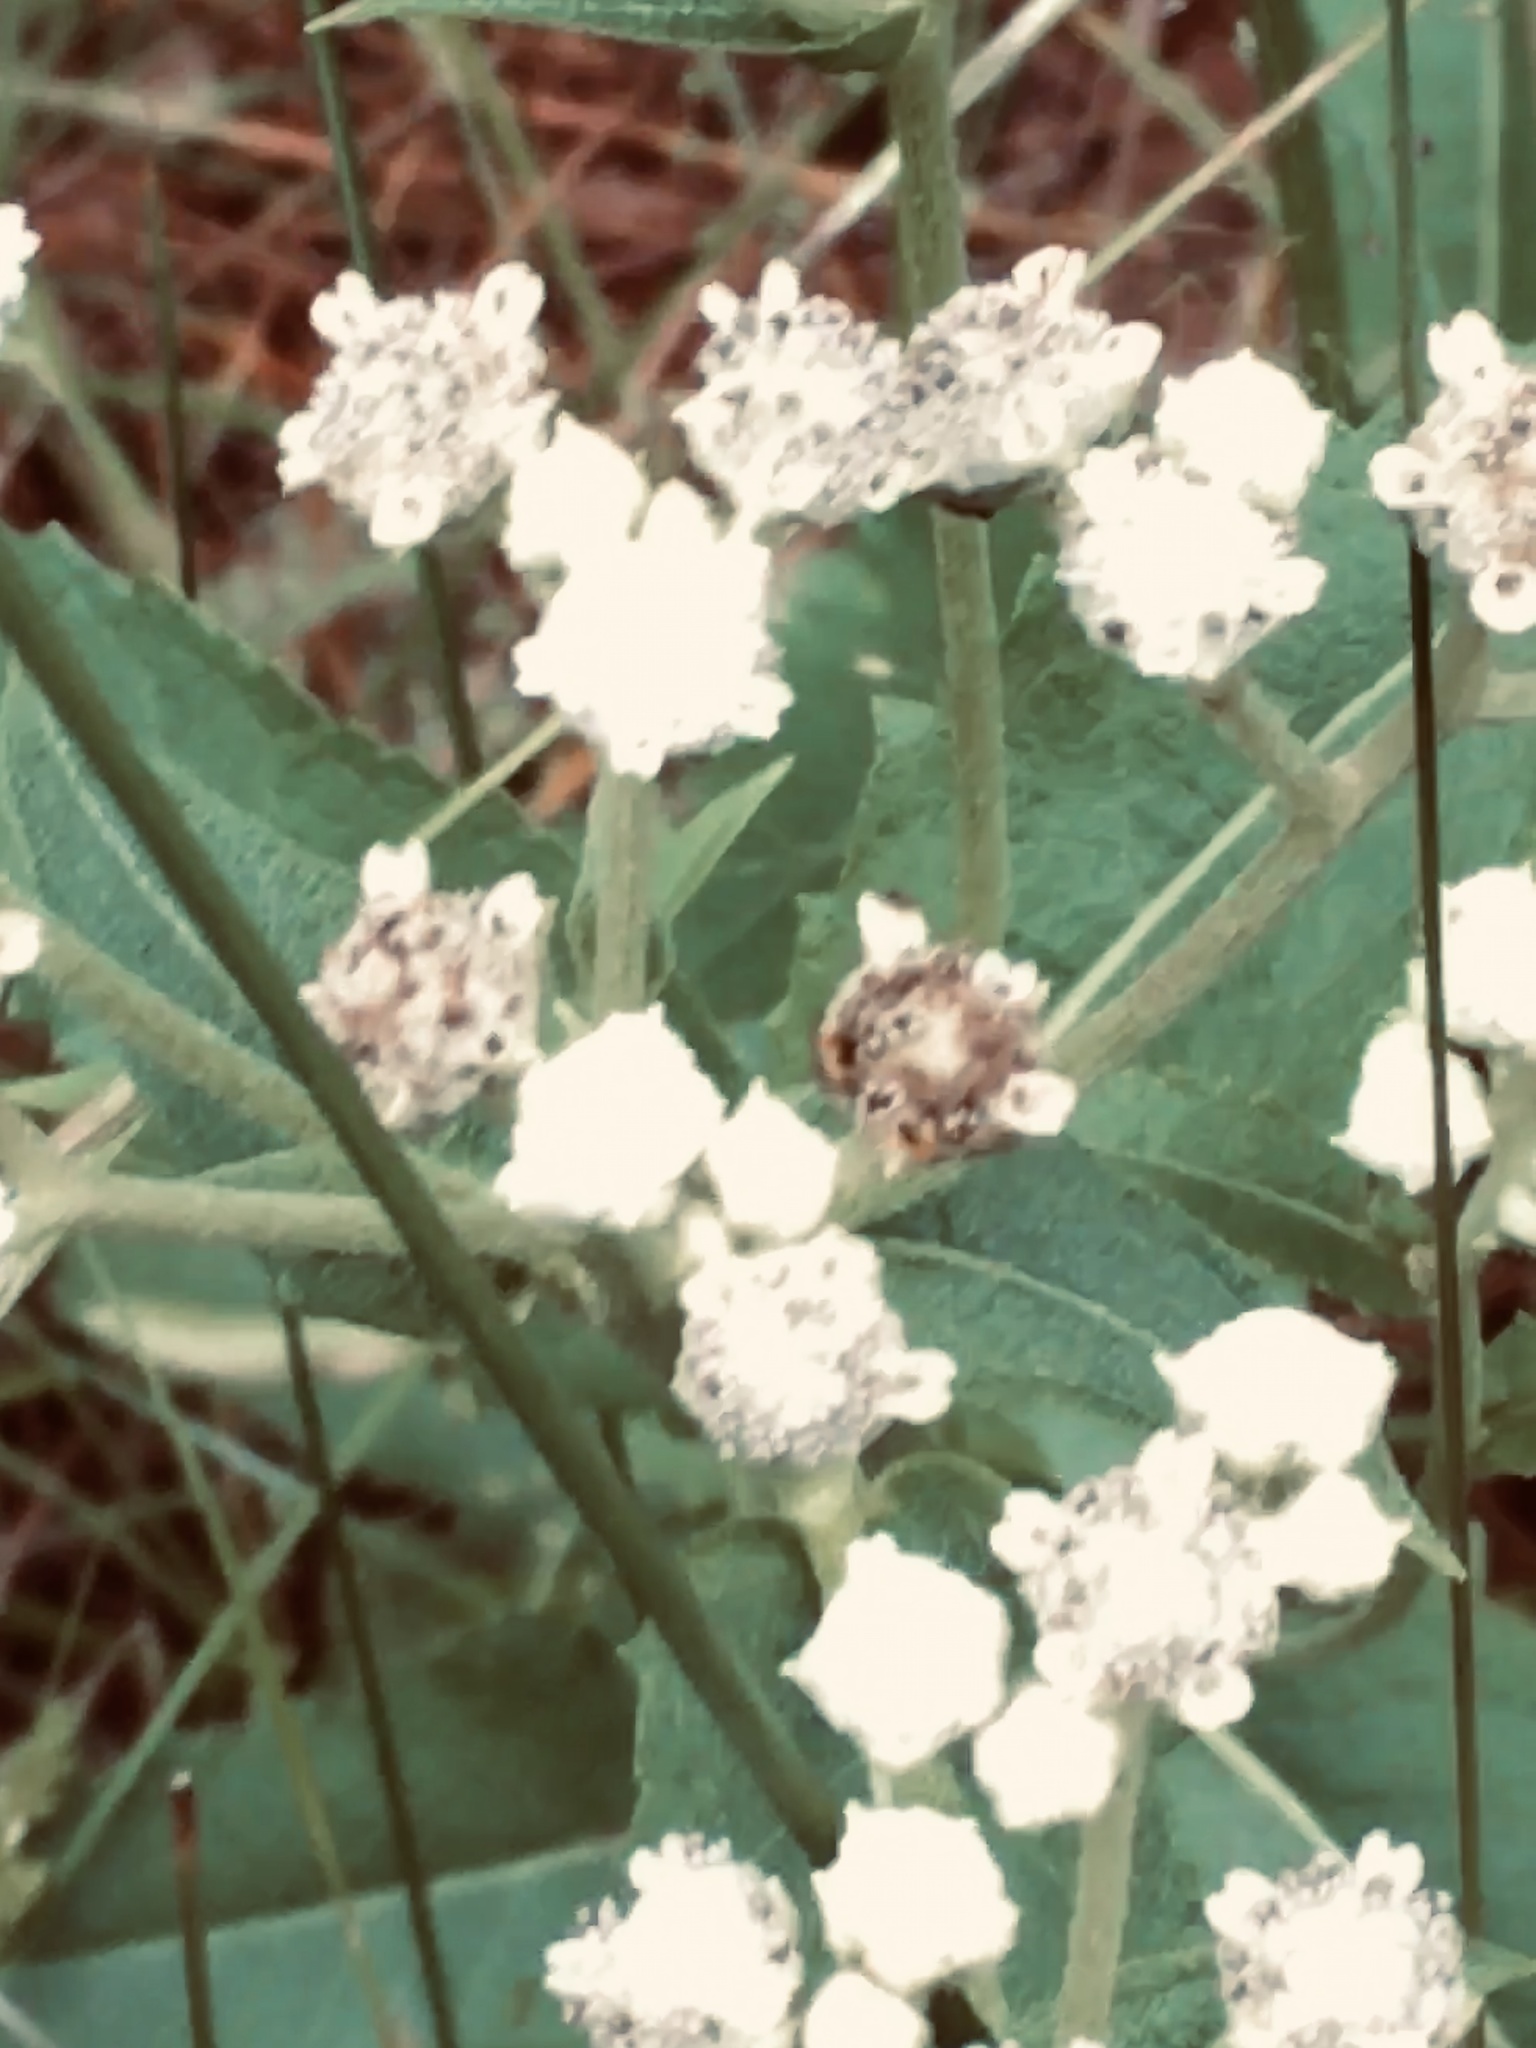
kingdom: Plantae
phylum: Tracheophyta
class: Magnoliopsida
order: Asterales
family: Asteraceae
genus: Parthenium
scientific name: Parthenium integrifolium
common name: American feverfew
